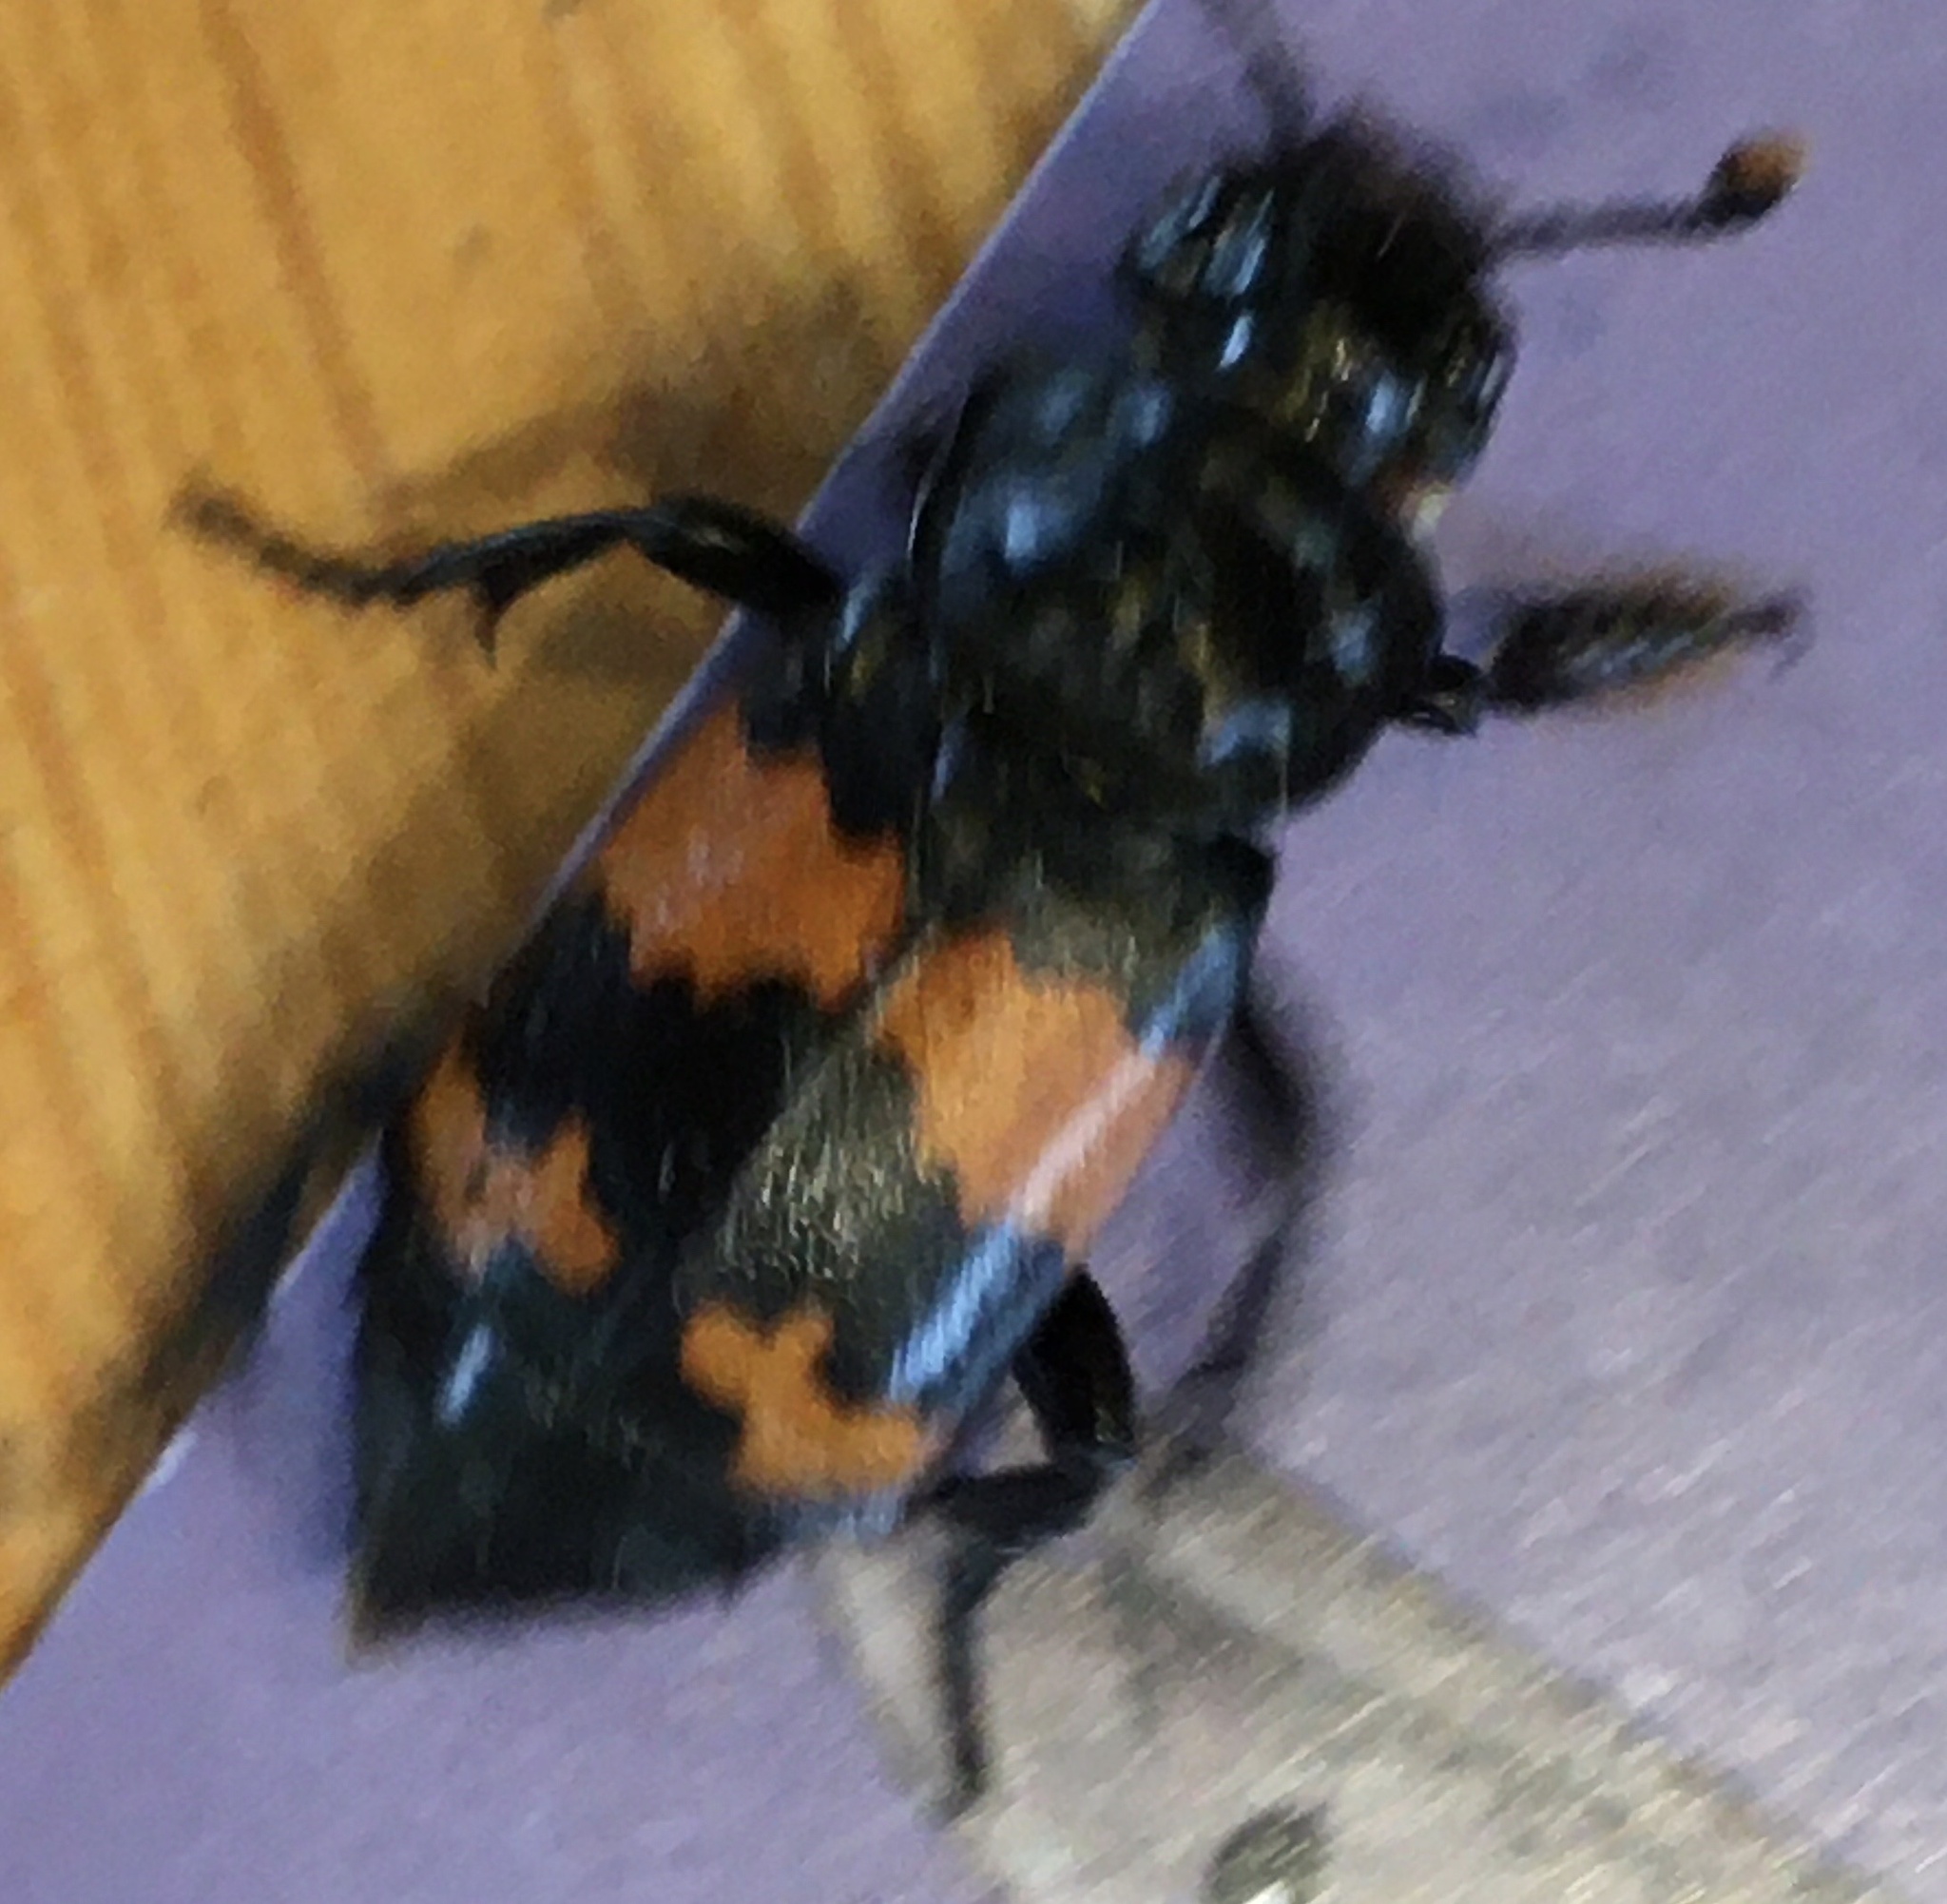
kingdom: Animalia
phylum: Arthropoda
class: Insecta
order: Coleoptera
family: Staphylinidae
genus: Nicrophorus
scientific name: Nicrophorus investigator
